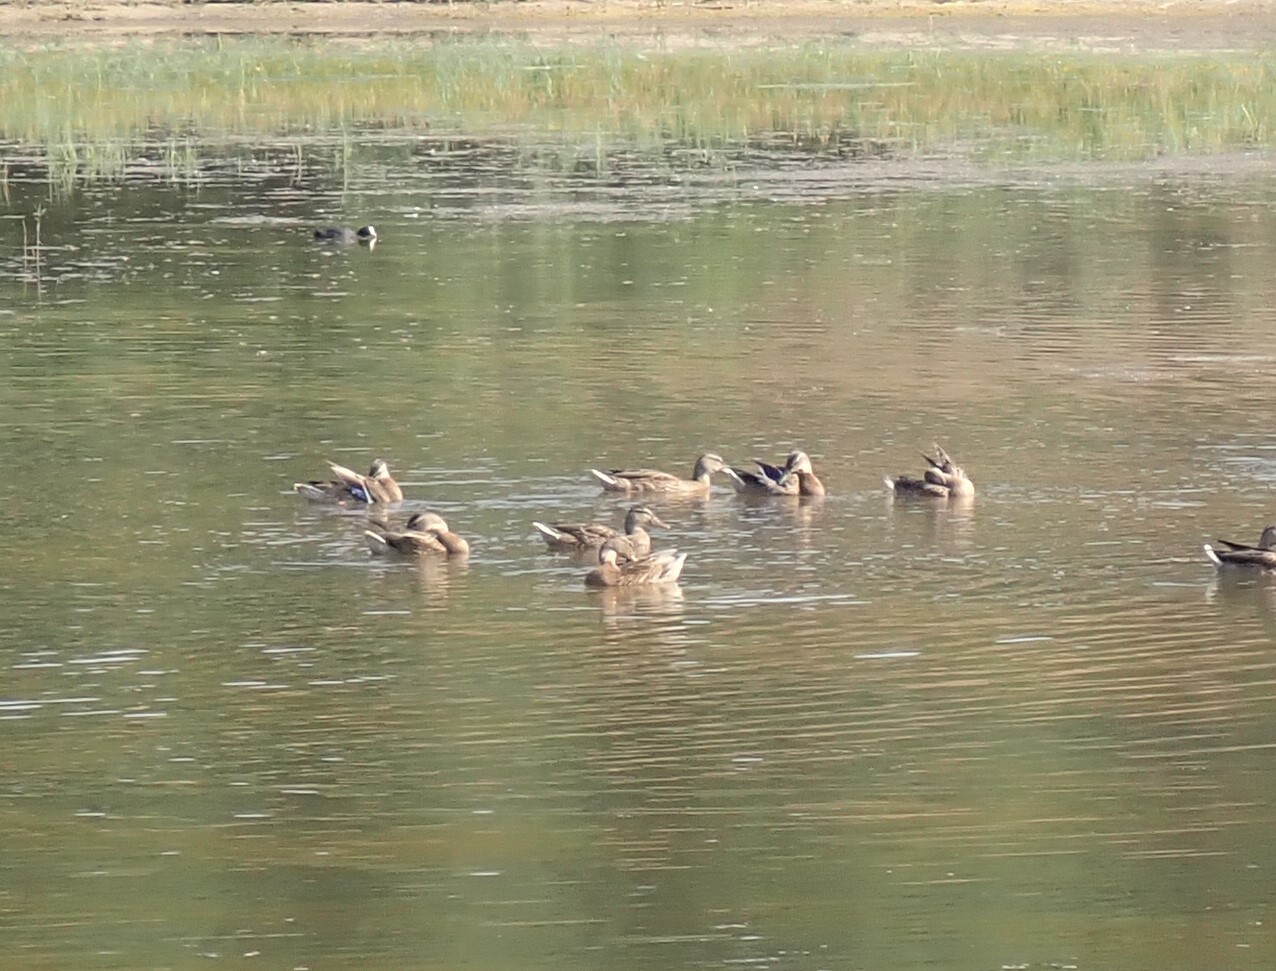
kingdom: Animalia
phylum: Chordata
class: Aves
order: Anseriformes
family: Anatidae
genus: Anas
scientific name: Anas platyrhynchos
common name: Mallard
